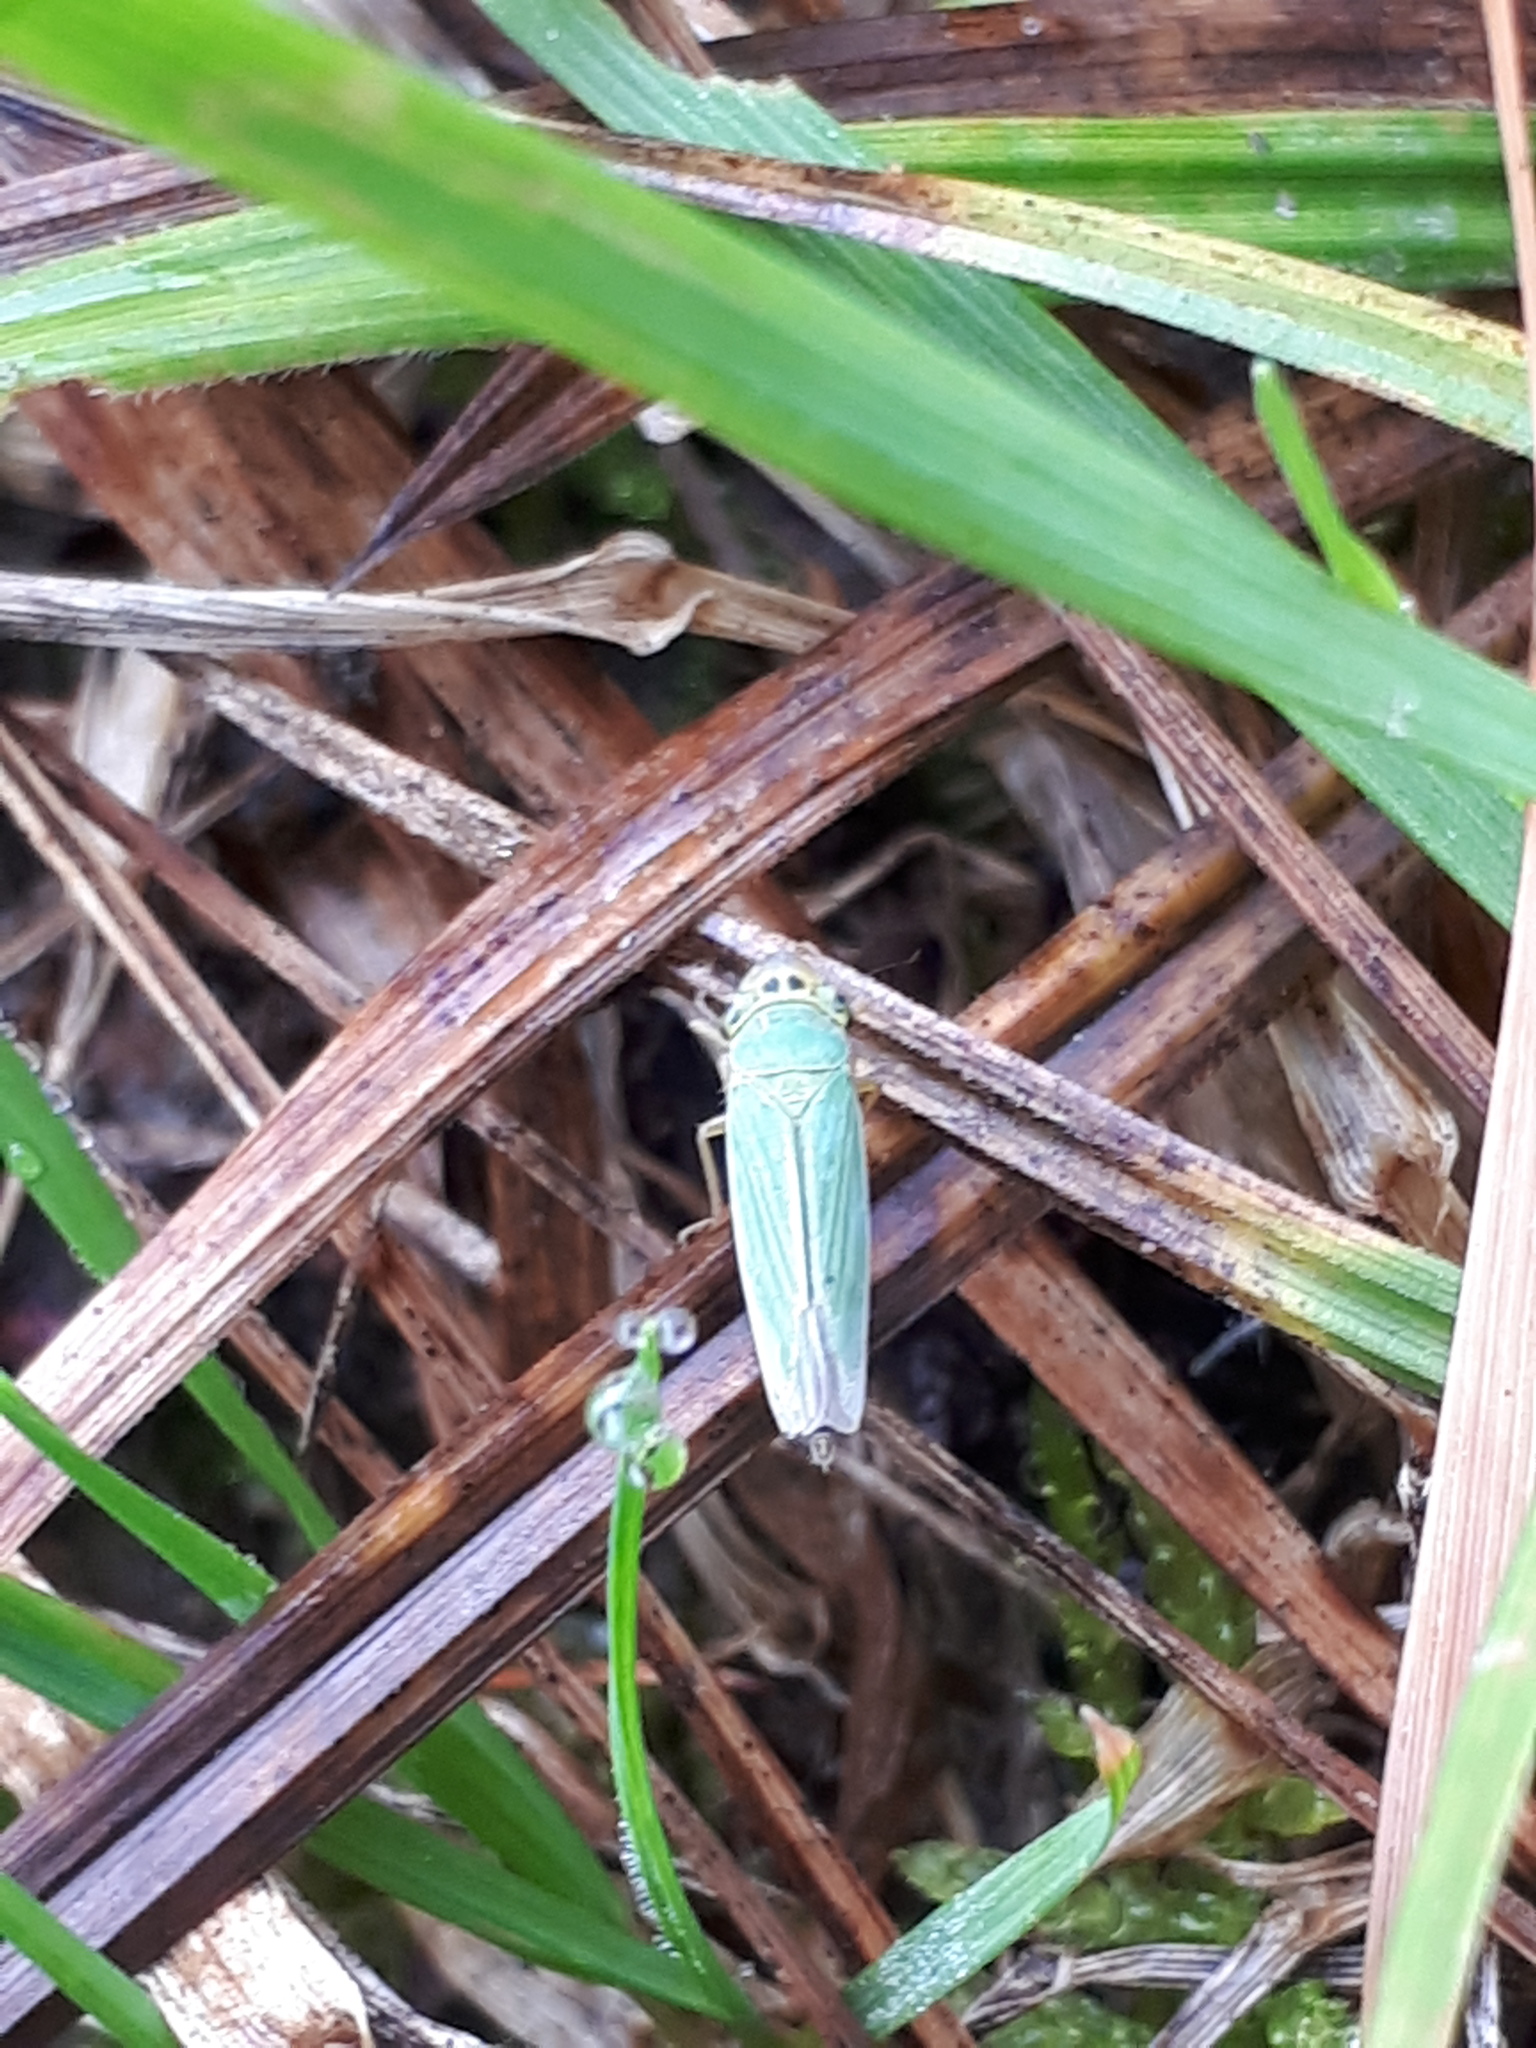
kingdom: Animalia
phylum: Arthropoda
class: Insecta
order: Hemiptera
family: Cicadellidae
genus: Cicadella
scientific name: Cicadella viridis
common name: Leafhopper
